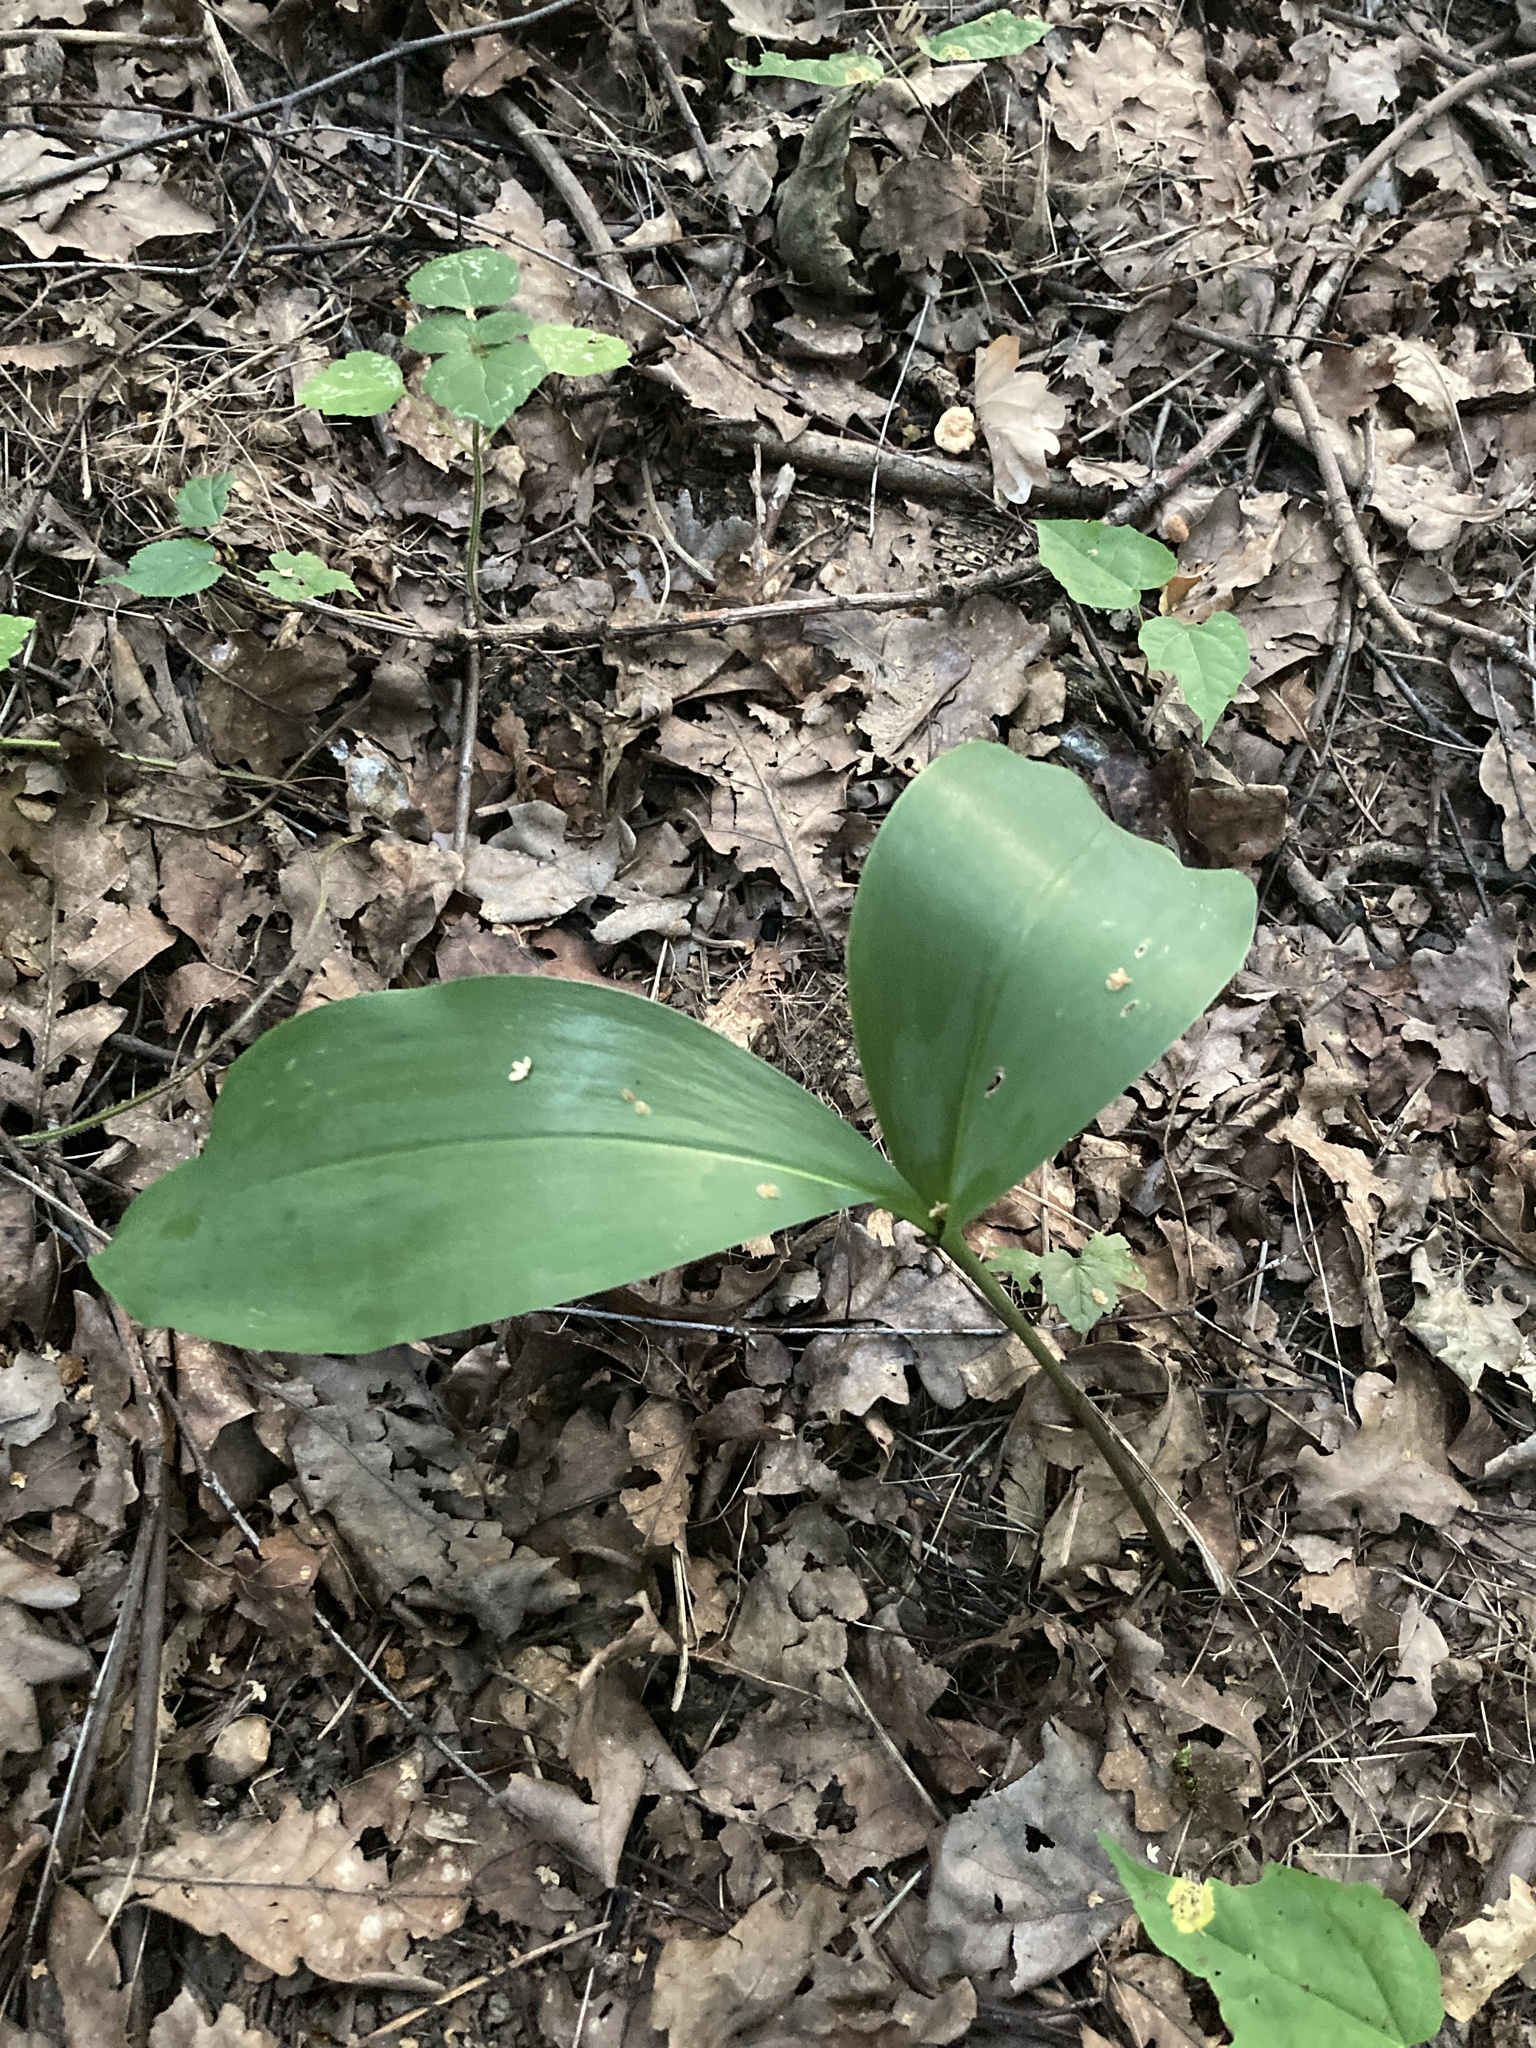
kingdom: Plantae
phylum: Tracheophyta
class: Liliopsida
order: Asparagales
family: Asparagaceae
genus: Convallaria
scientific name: Convallaria majalis
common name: Lily-of-the-valley
